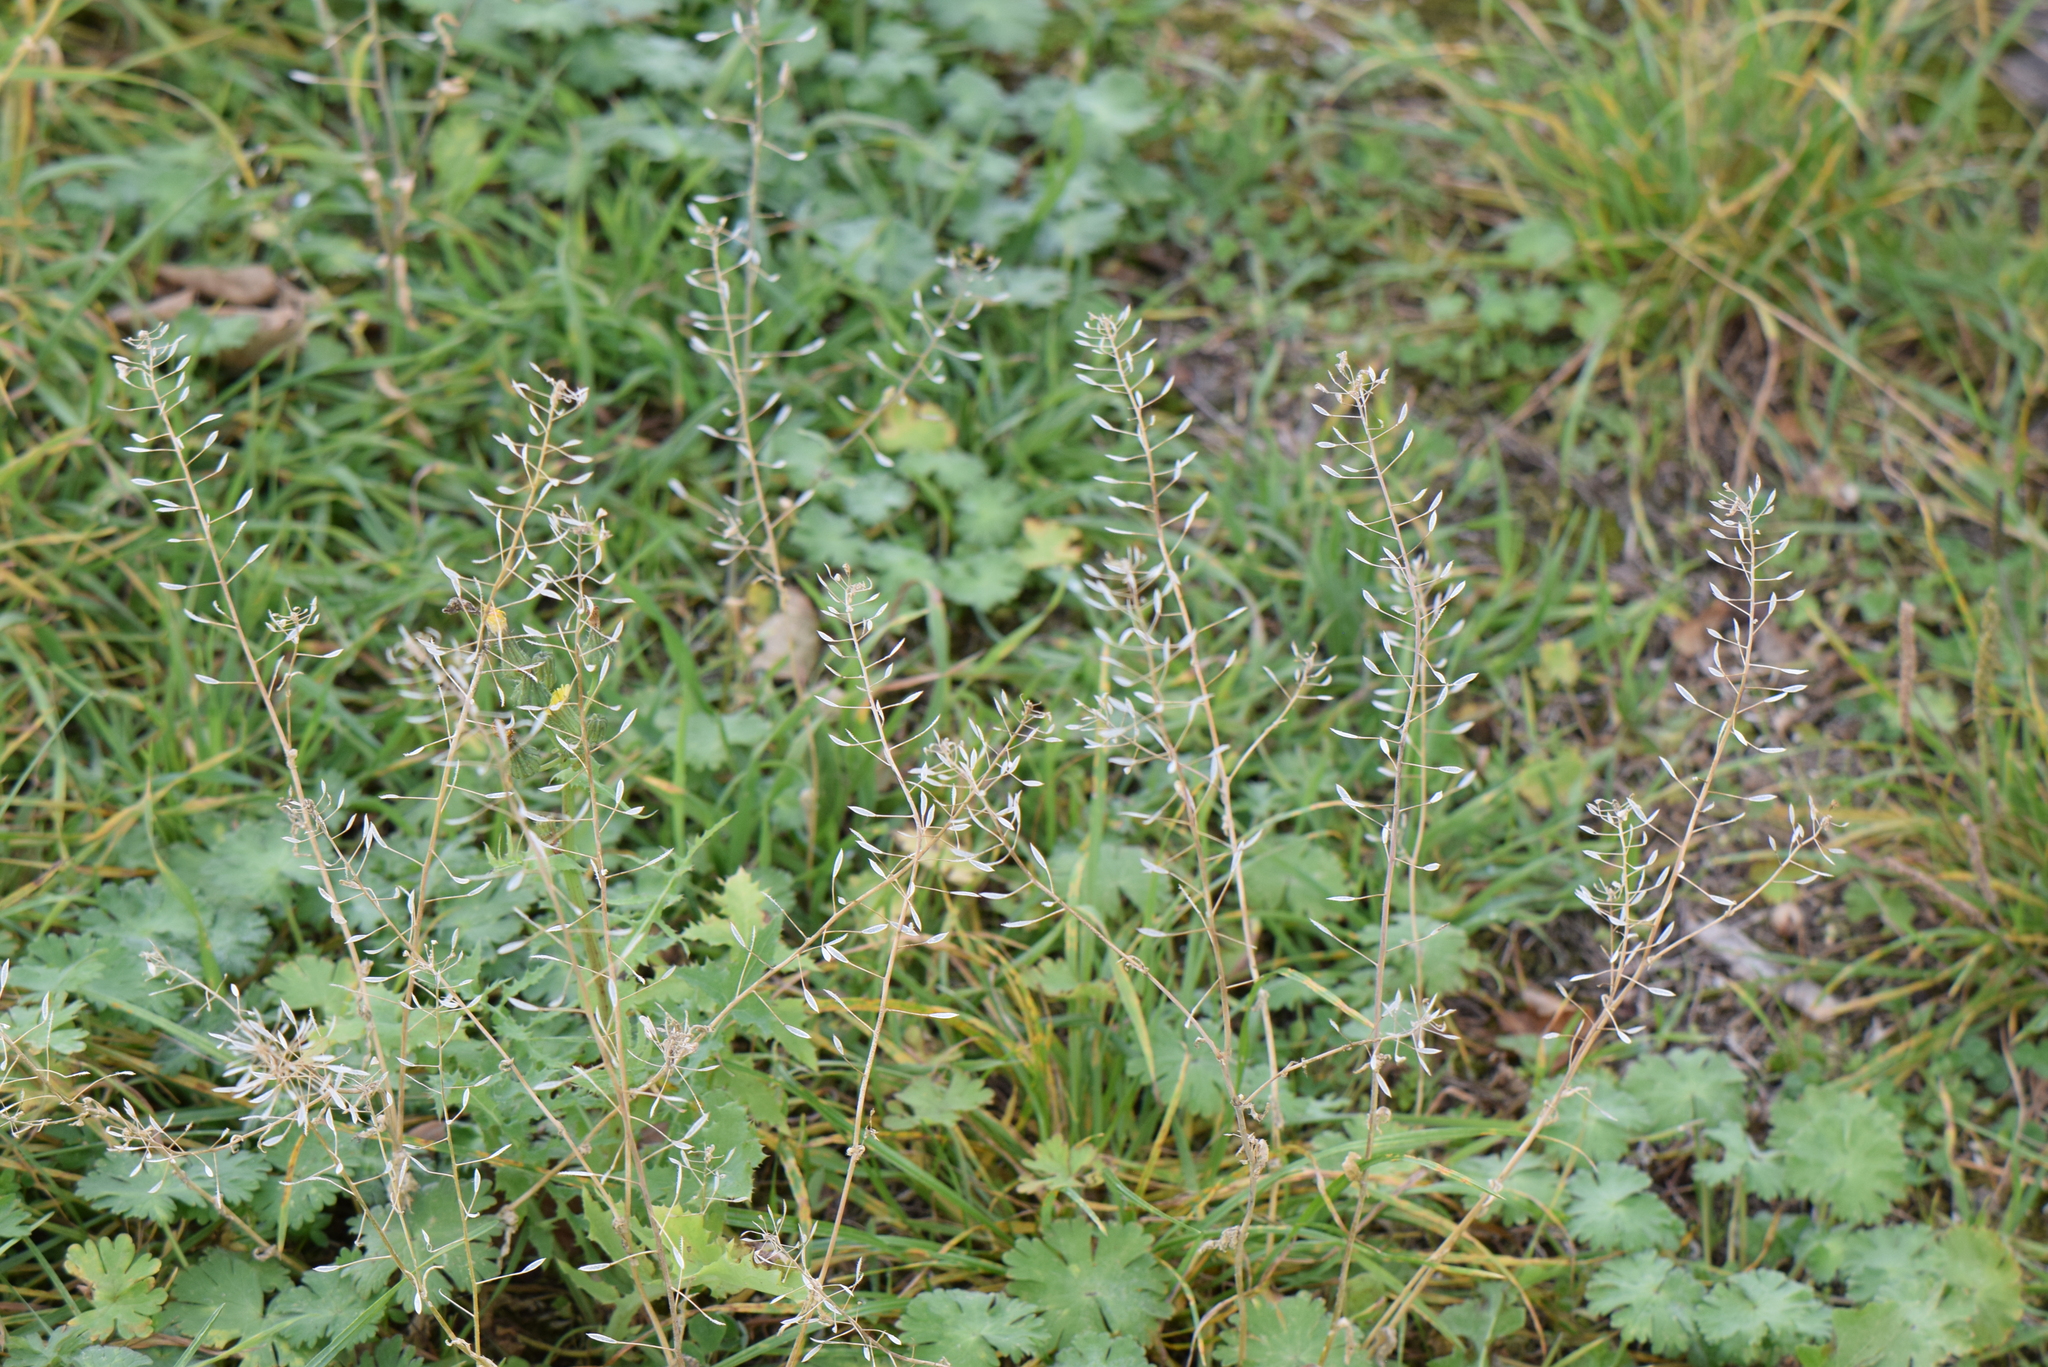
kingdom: Plantae
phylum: Tracheophyta
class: Magnoliopsida
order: Brassicales
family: Brassicaceae
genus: Capsella
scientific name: Capsella bursa-pastoris
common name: Shepherd's purse
